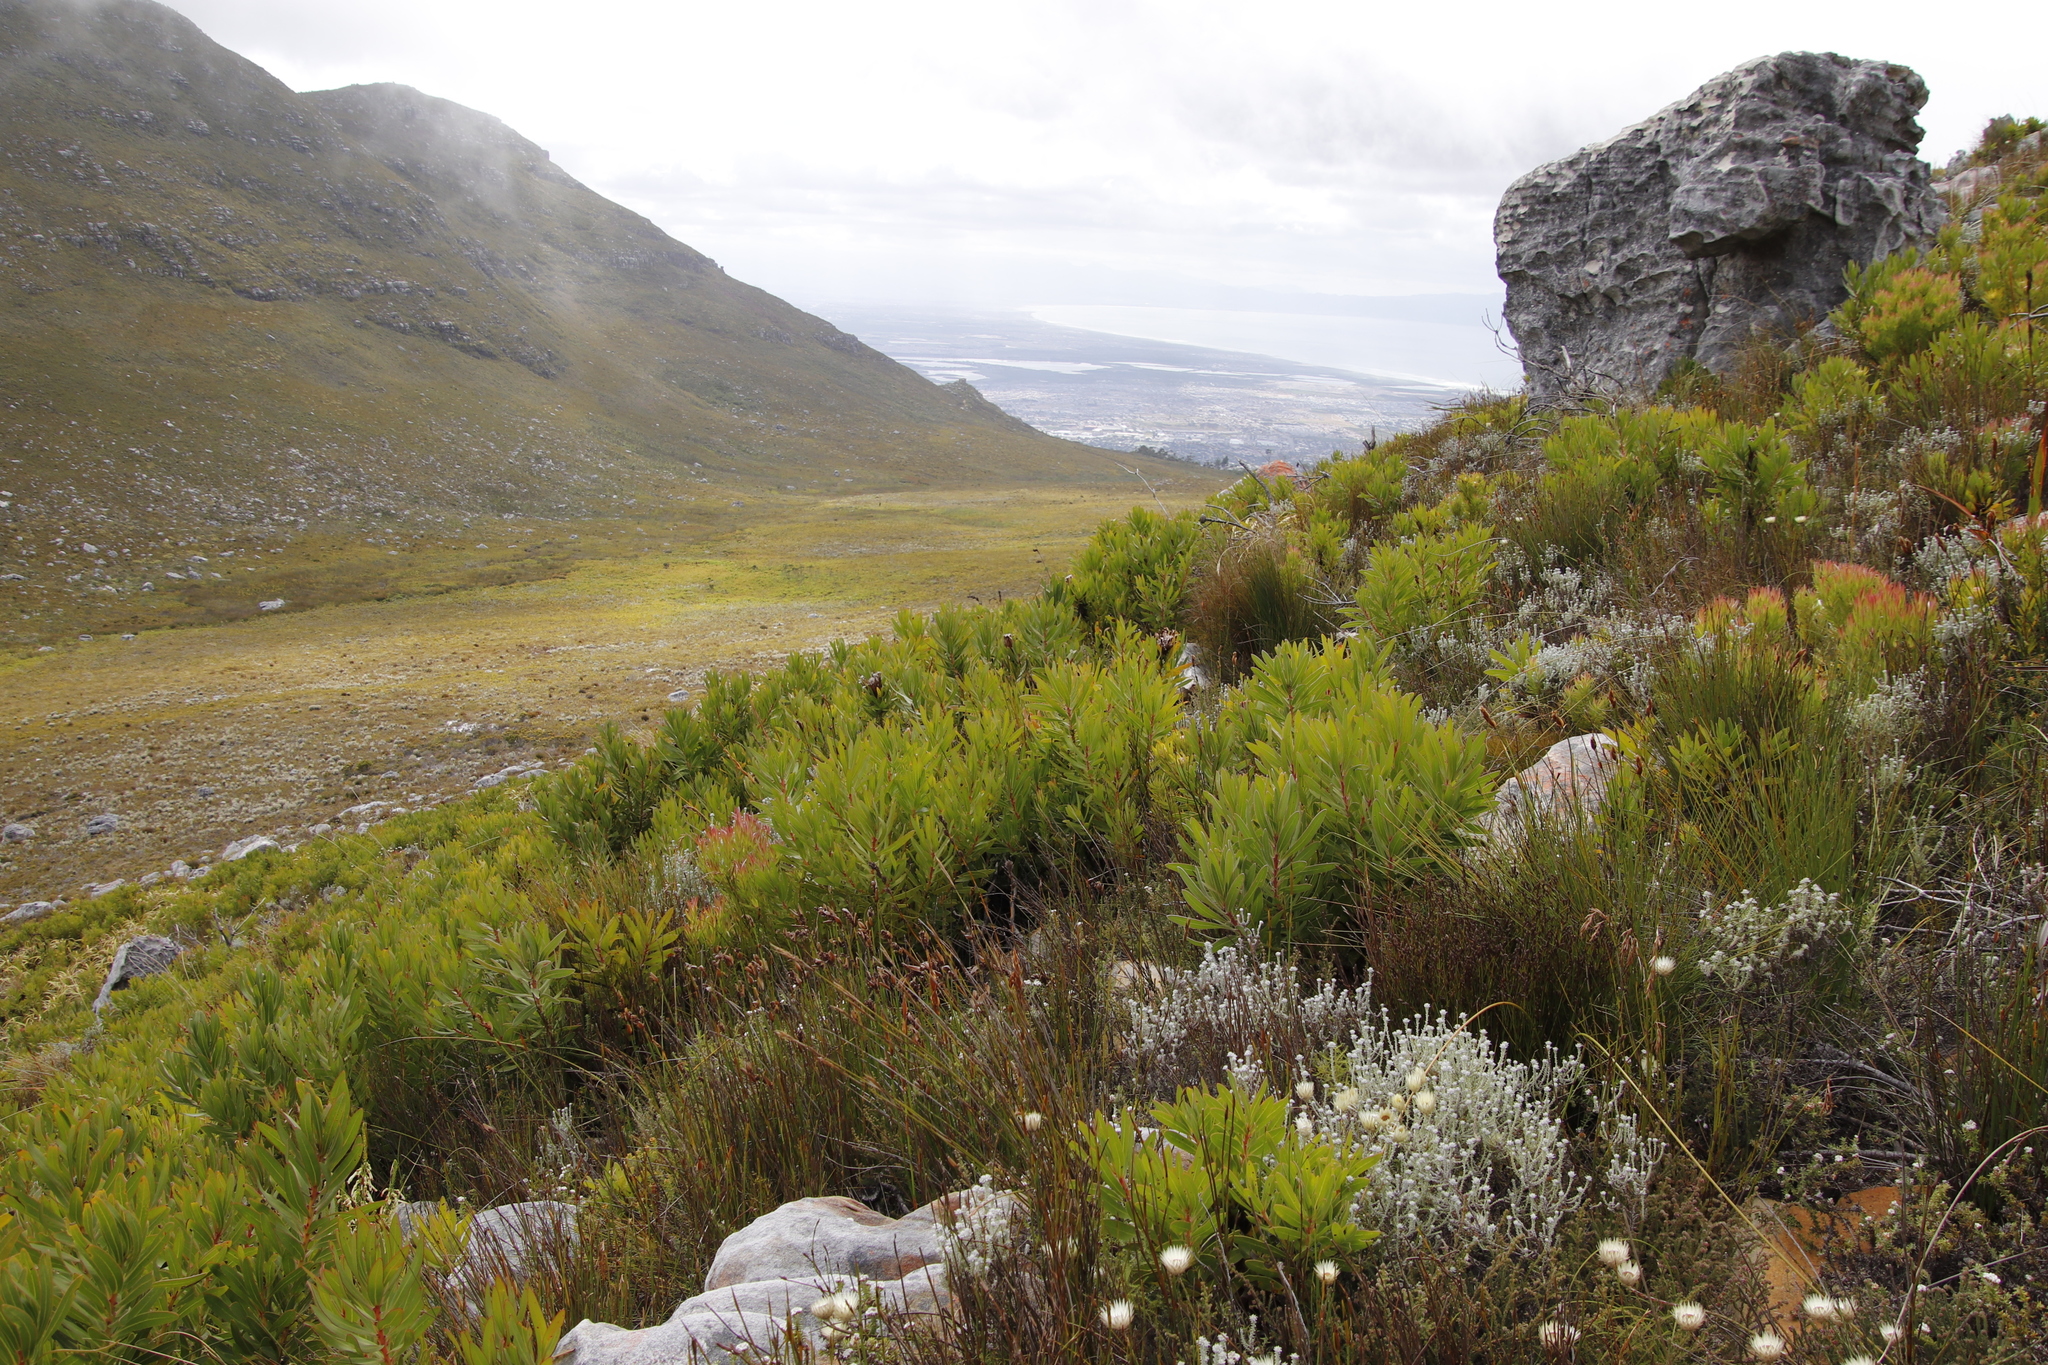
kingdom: Plantae
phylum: Tracheophyta
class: Magnoliopsida
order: Proteales
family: Proteaceae
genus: Protea
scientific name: Protea lepidocarpodendron
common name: Black-bearded protea
